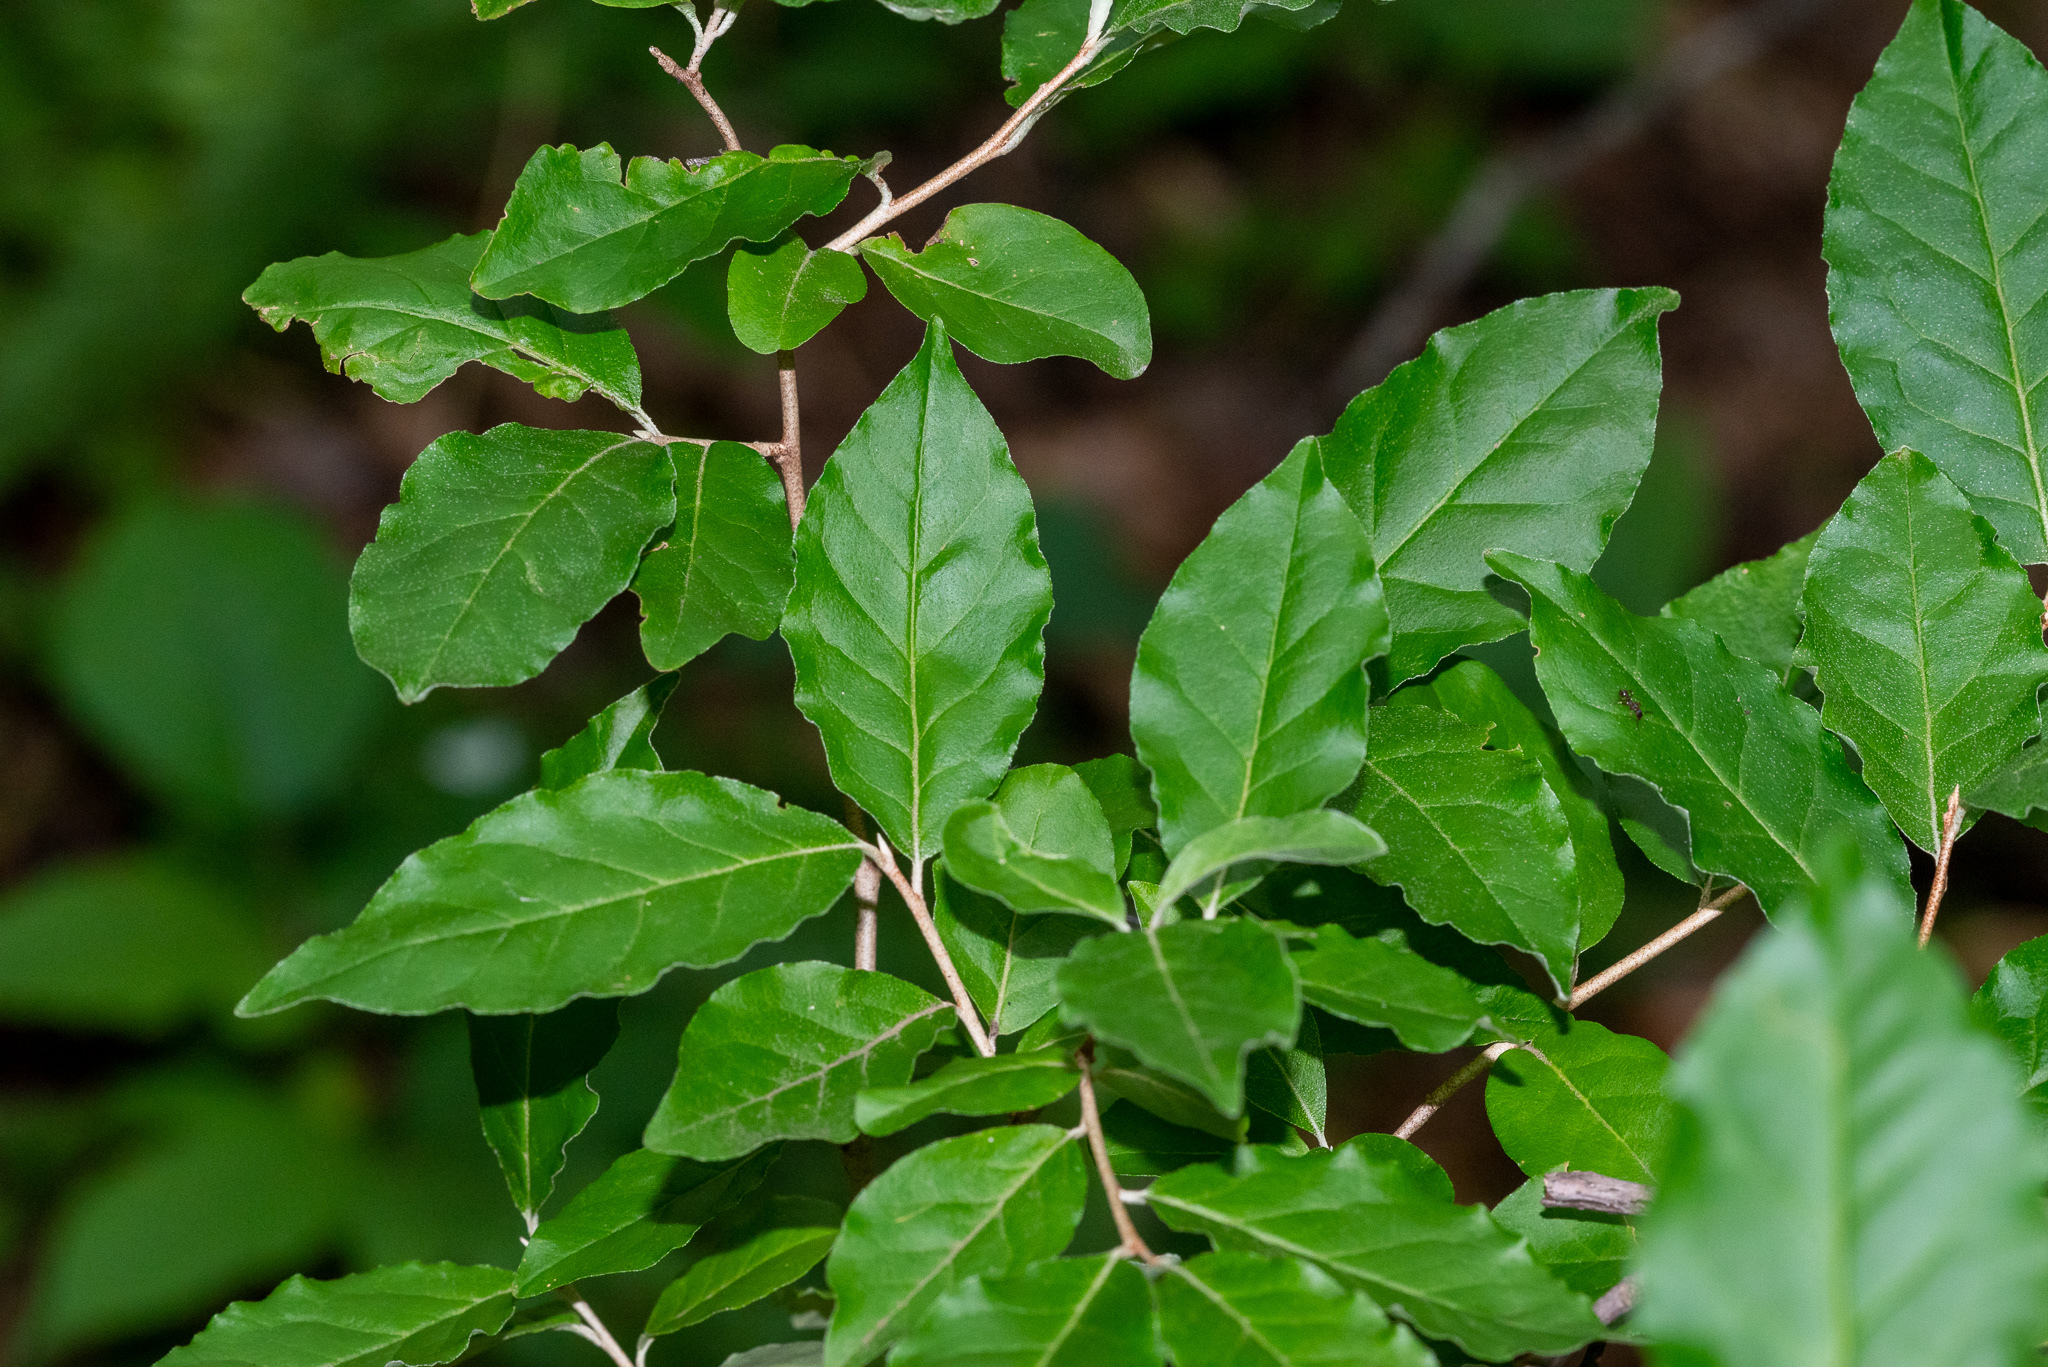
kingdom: Plantae
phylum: Tracheophyta
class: Magnoliopsida
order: Rosales
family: Elaeagnaceae
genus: Elaeagnus
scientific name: Elaeagnus umbellata
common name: Autumn olive
